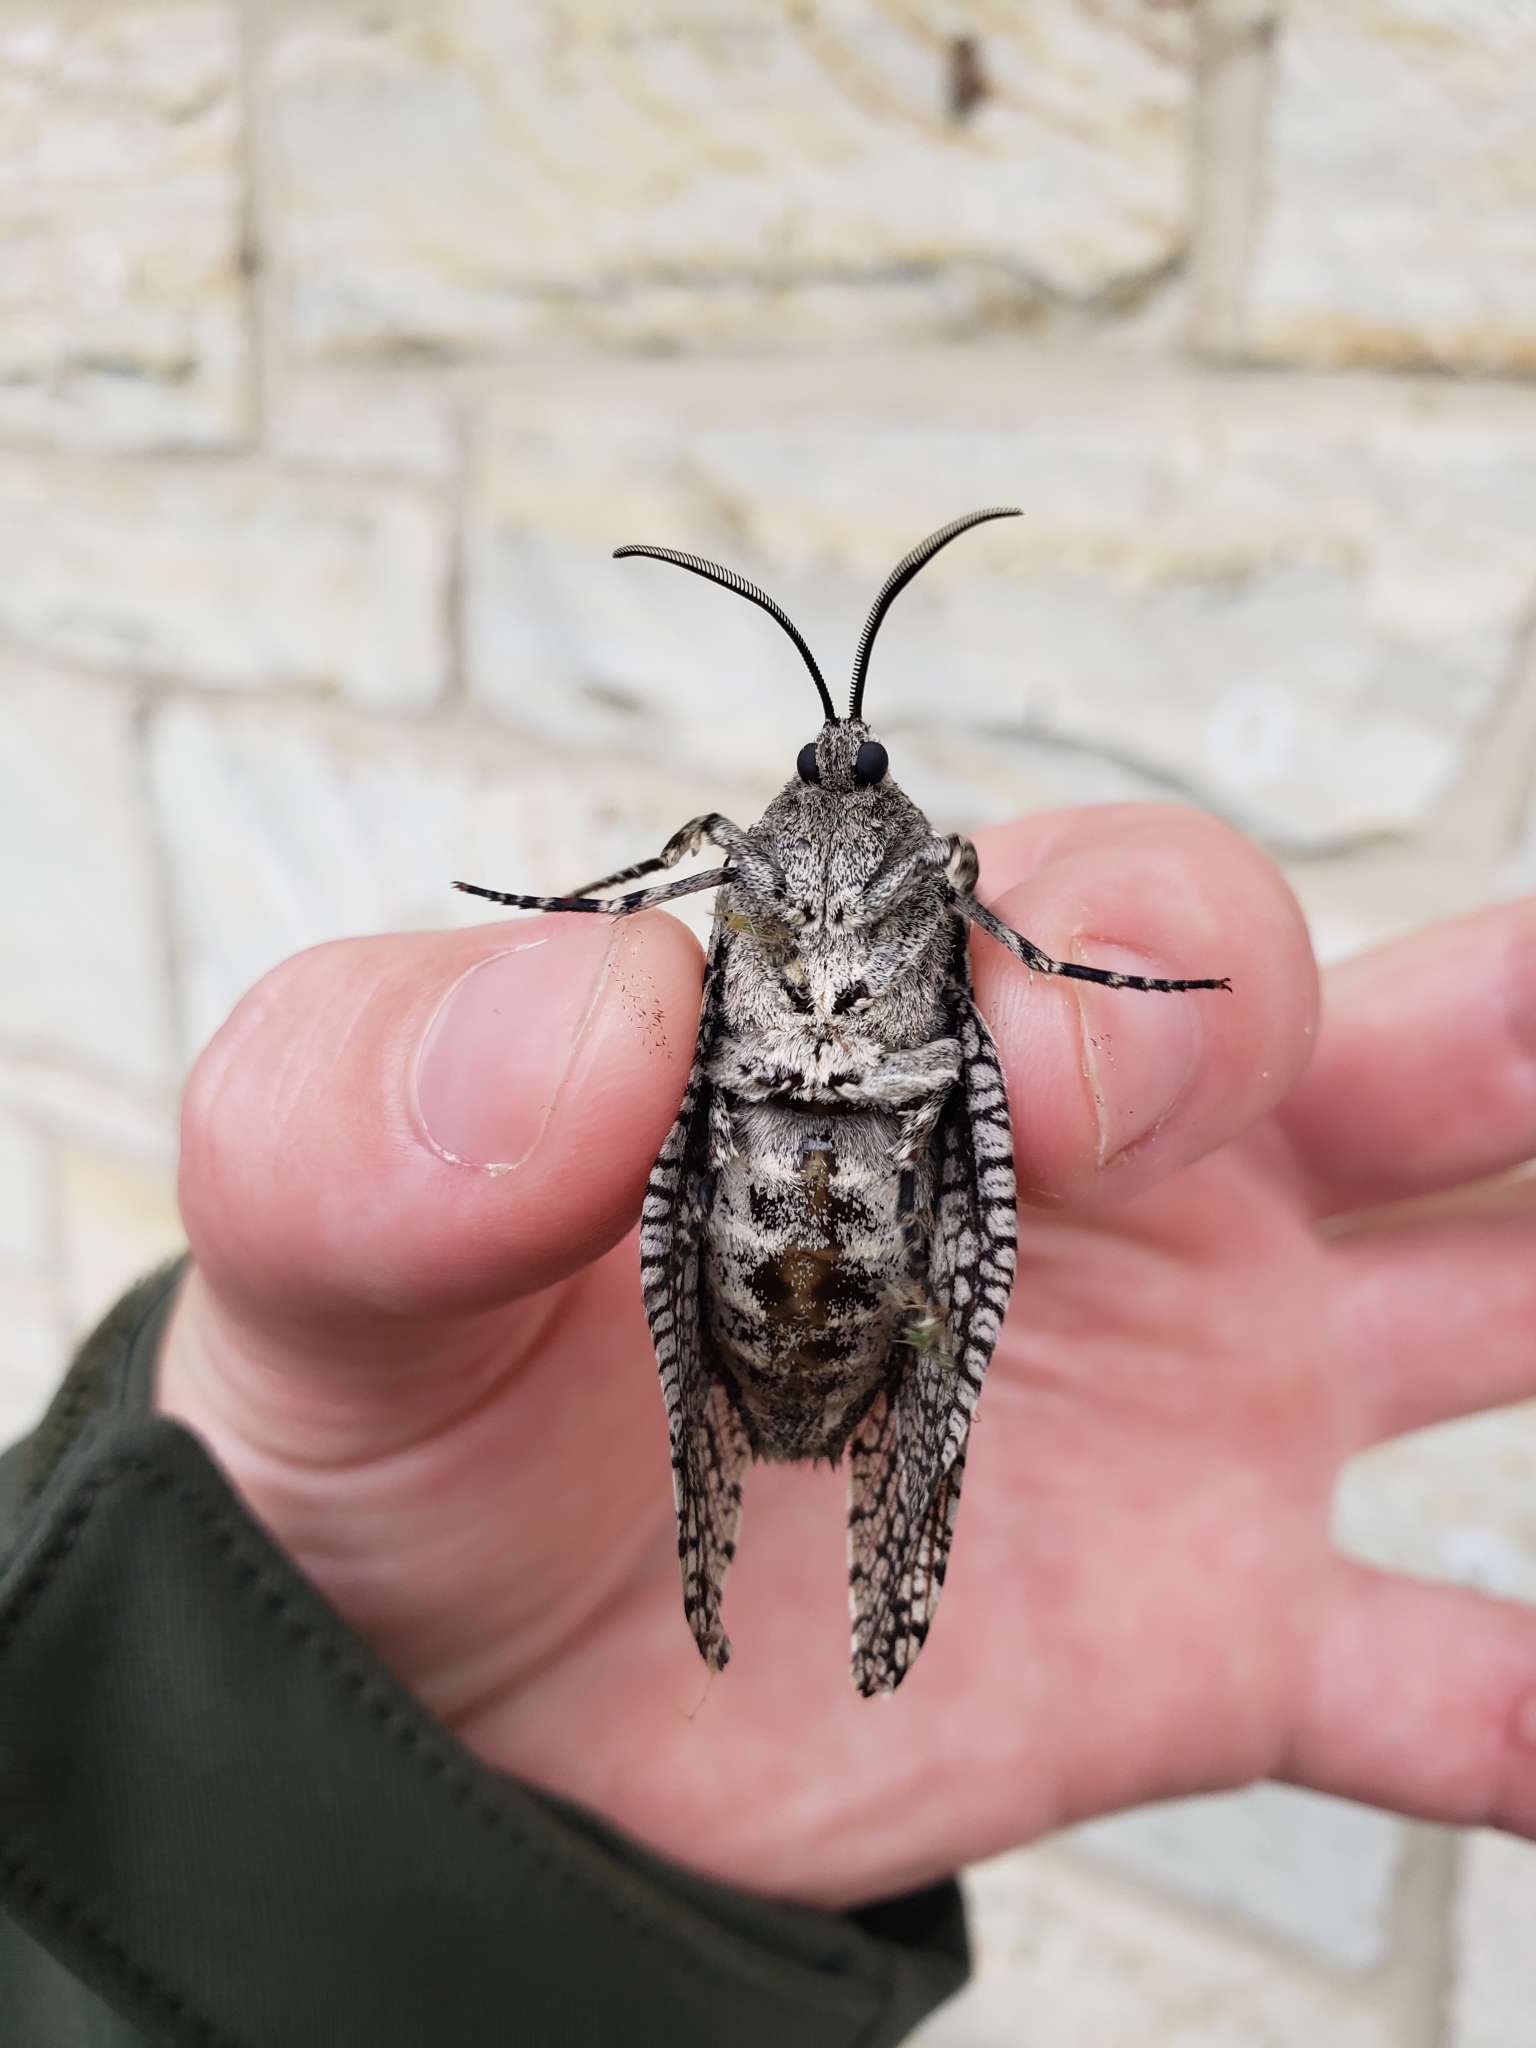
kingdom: Animalia
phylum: Arthropoda
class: Insecta
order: Lepidoptera
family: Cossidae
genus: Prionoxystus
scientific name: Prionoxystus robiniae
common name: Carpenterworm
